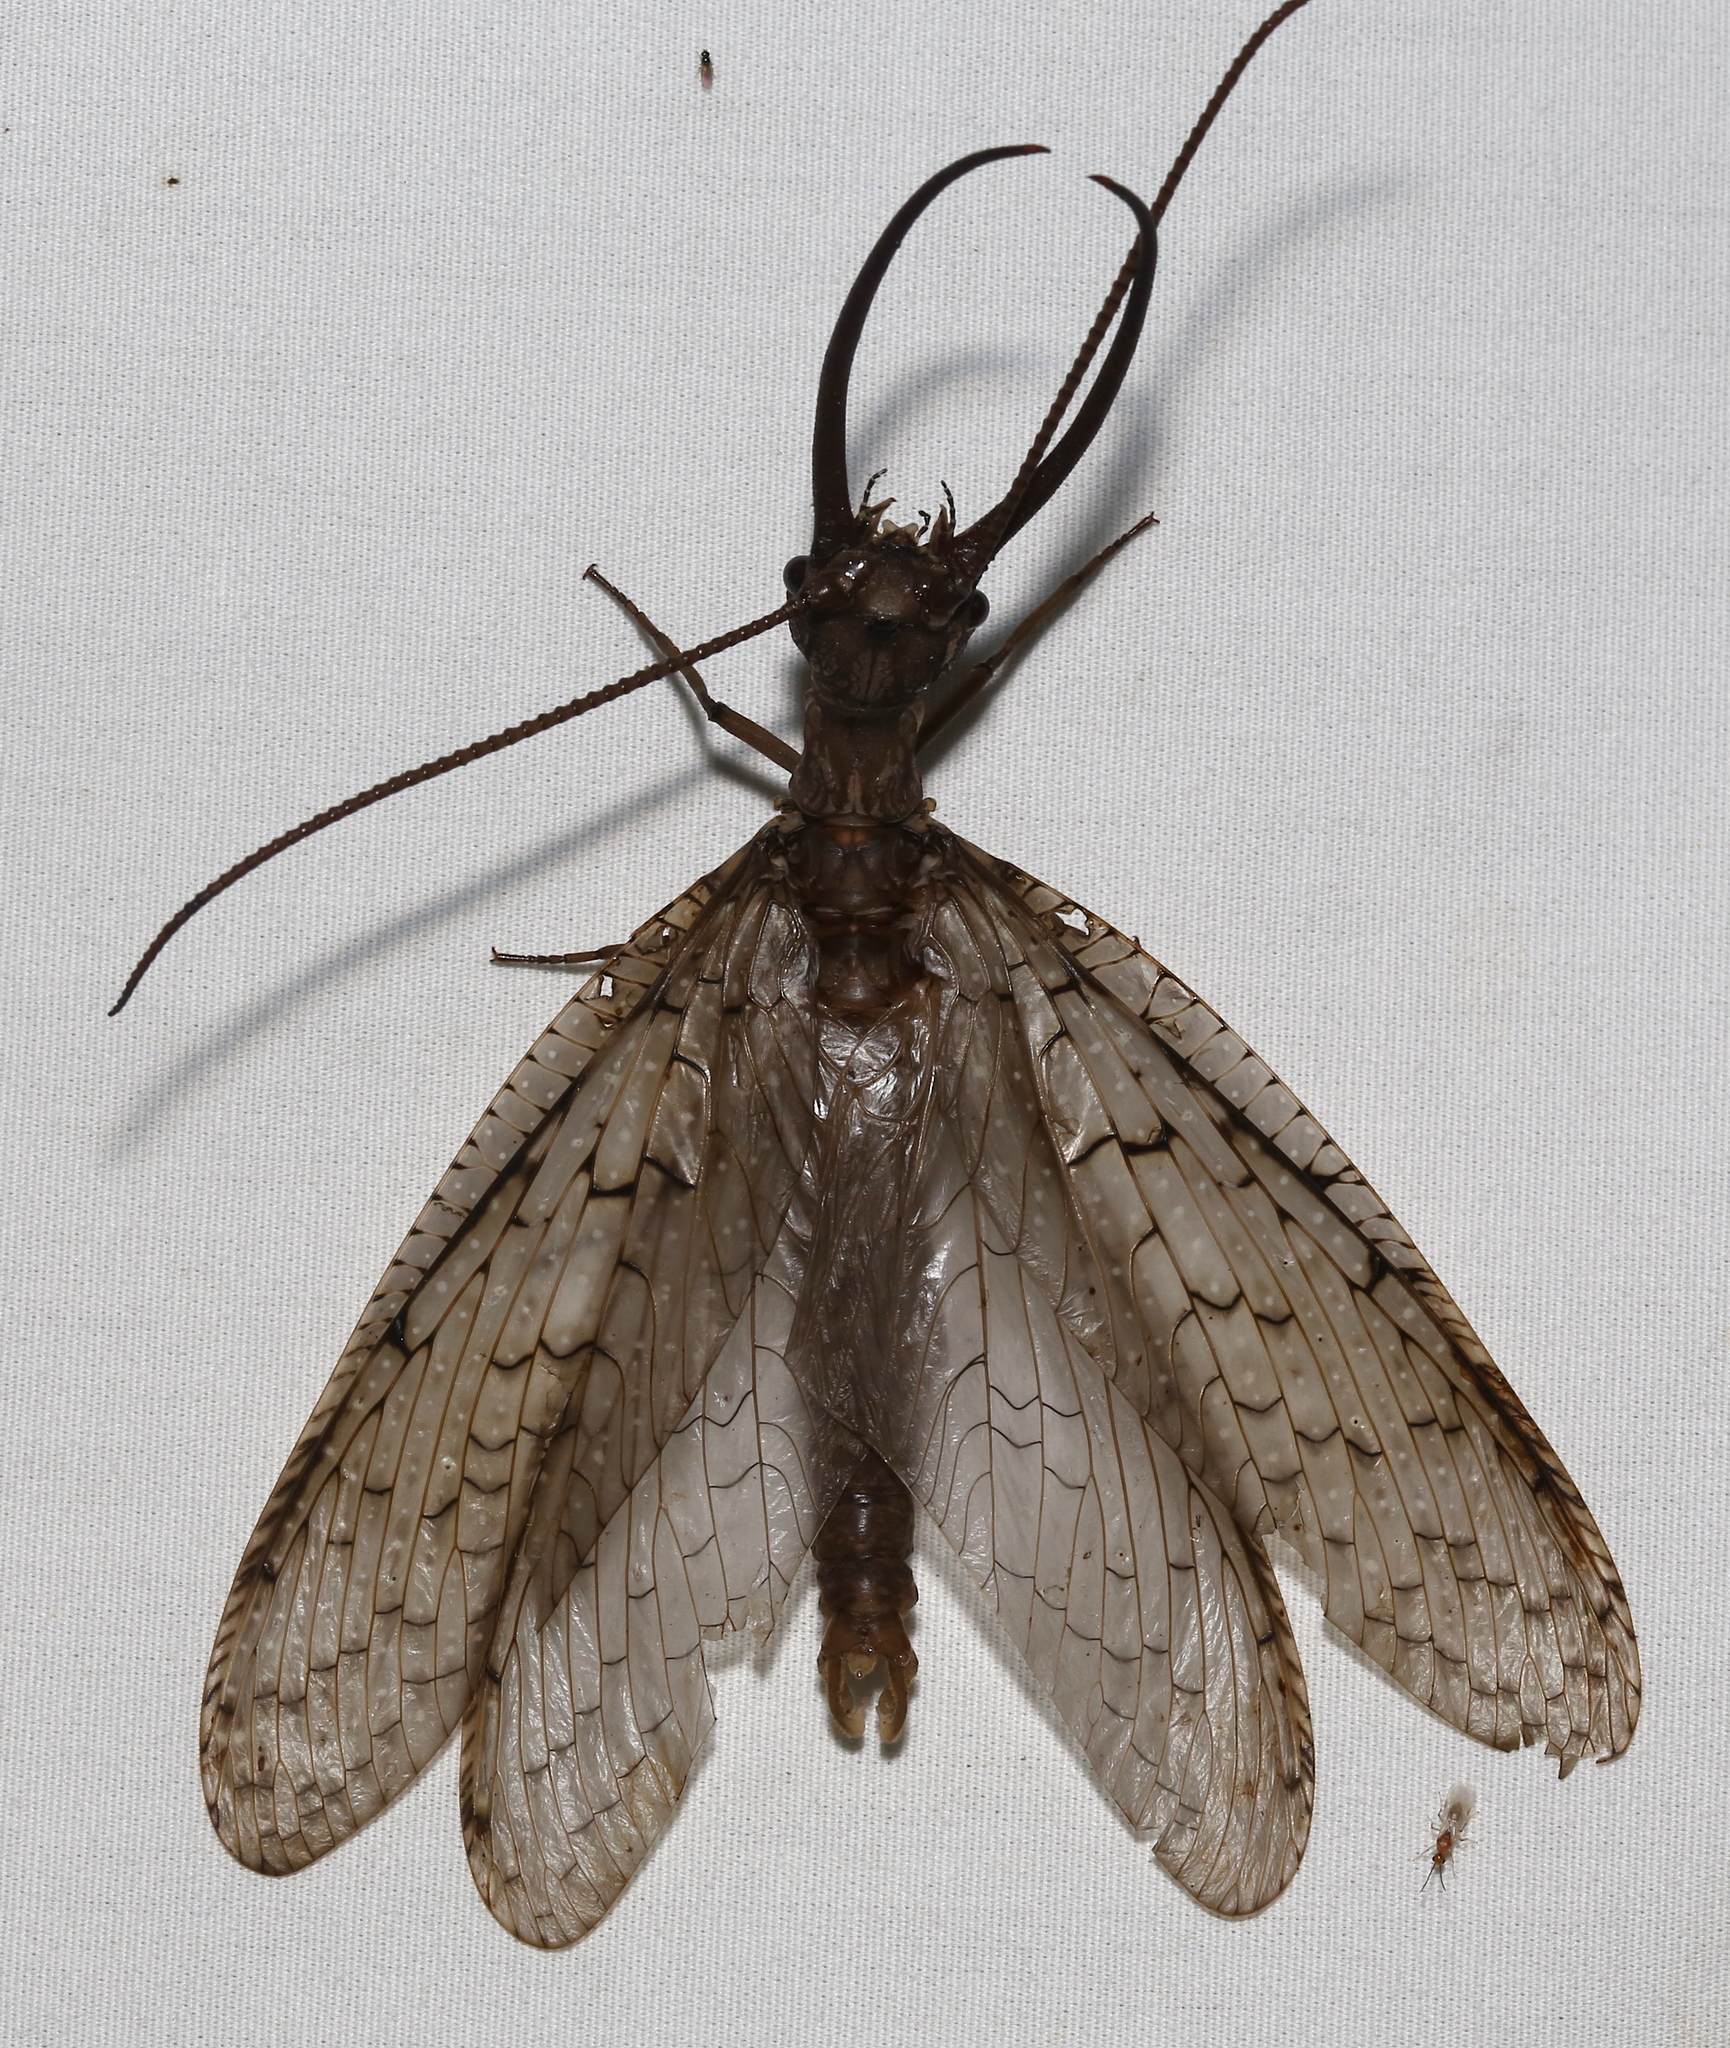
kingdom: Animalia
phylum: Arthropoda
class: Insecta
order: Megaloptera
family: Corydalidae
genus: Corydalus
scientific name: Corydalus cornutus
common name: Dobsonfly
